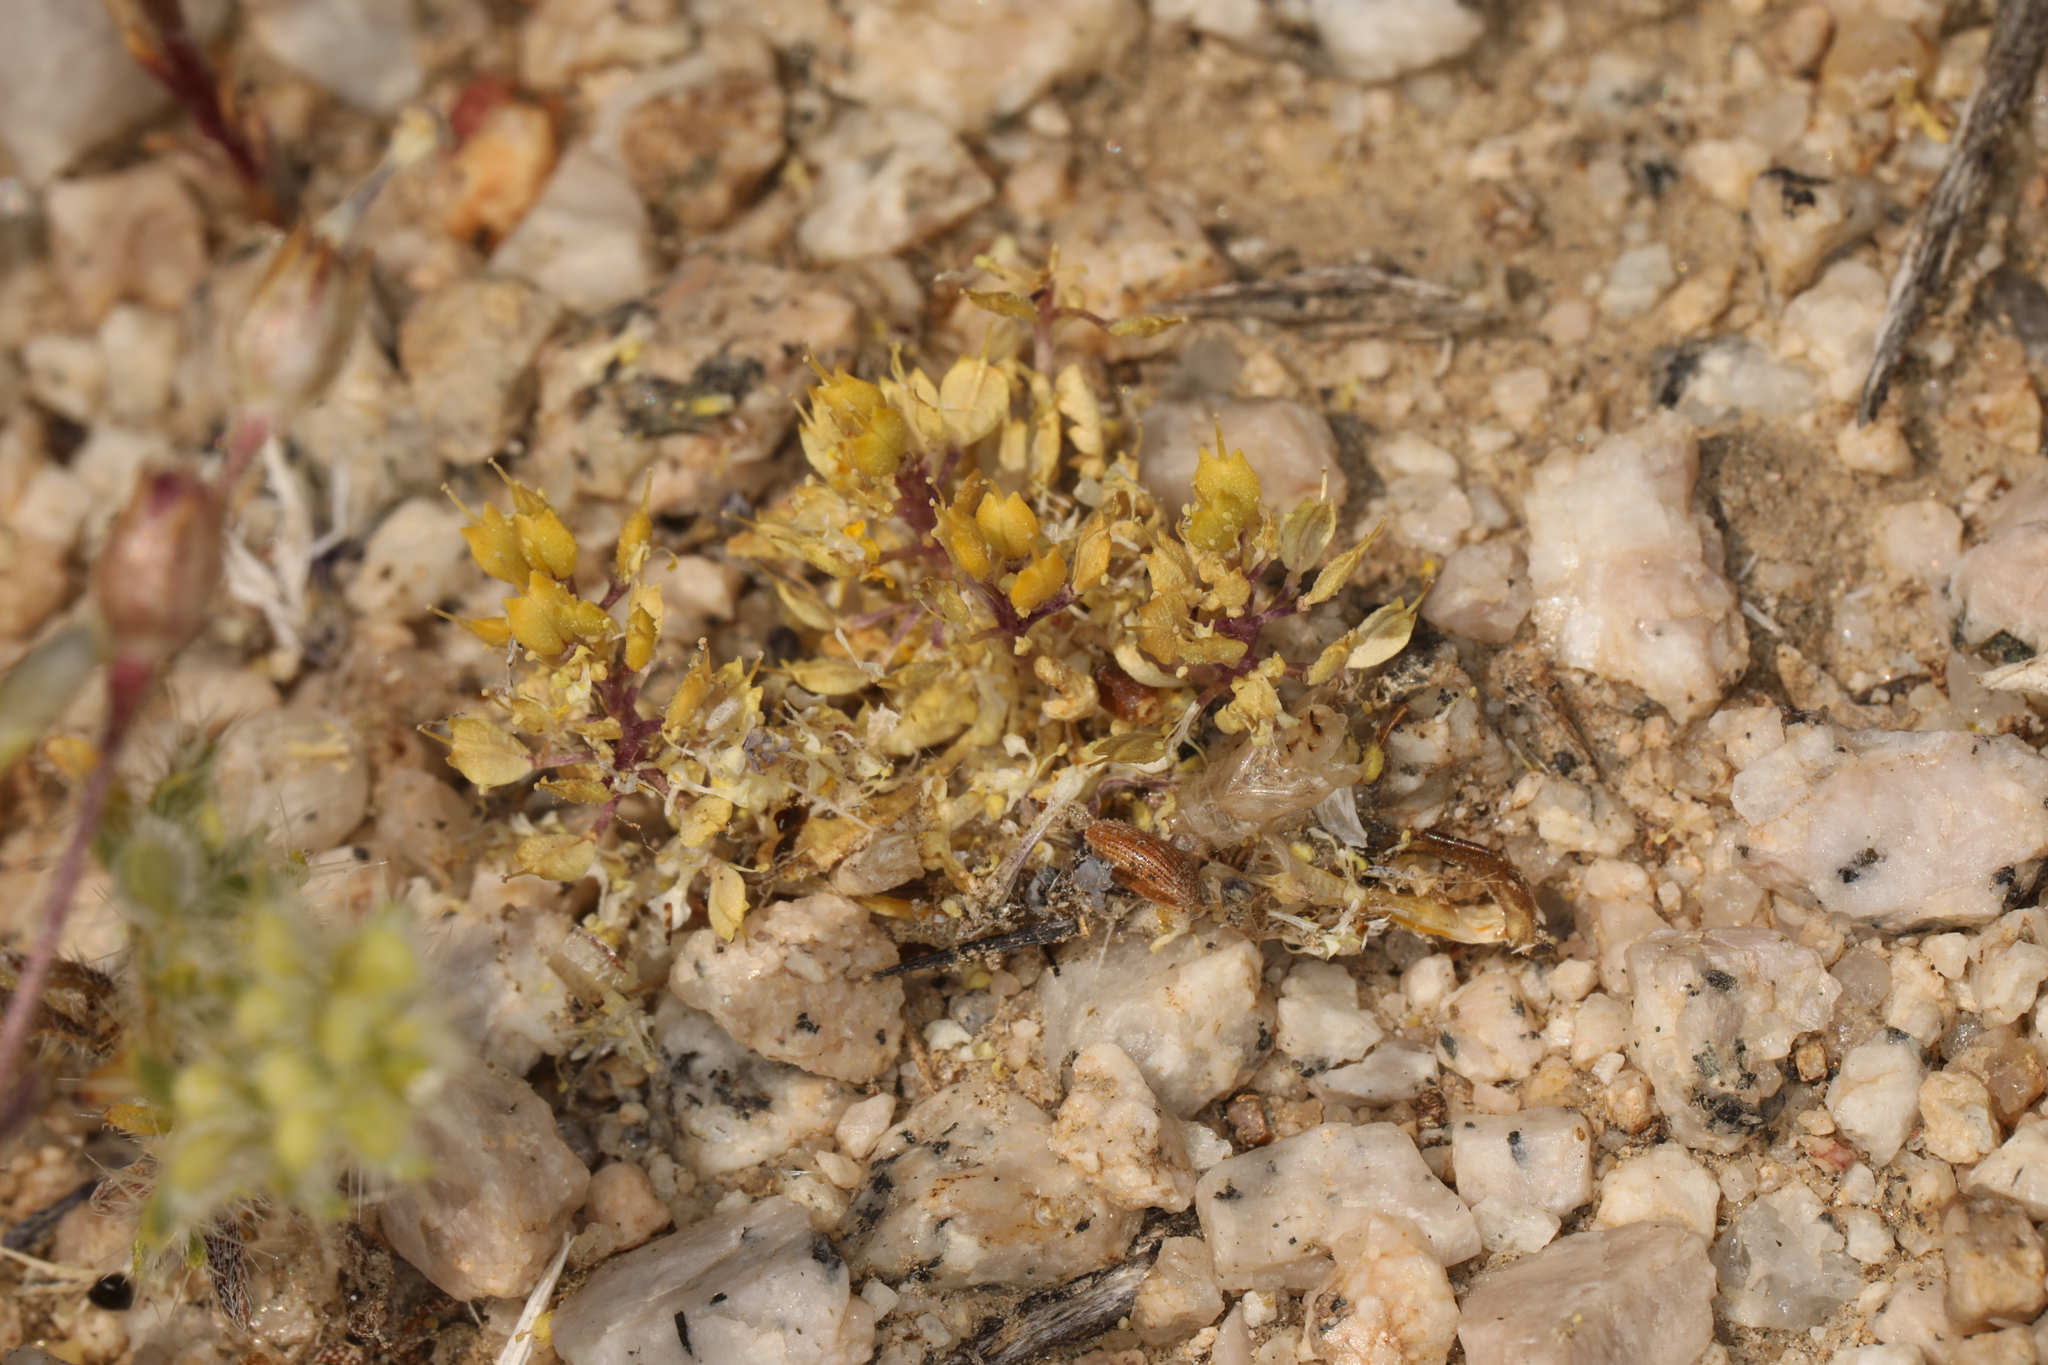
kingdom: Plantae
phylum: Tracheophyta
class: Magnoliopsida
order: Brassicales
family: Brassicaceae
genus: Lepidium
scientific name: Lepidium flavum
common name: Yellow pepperwort
